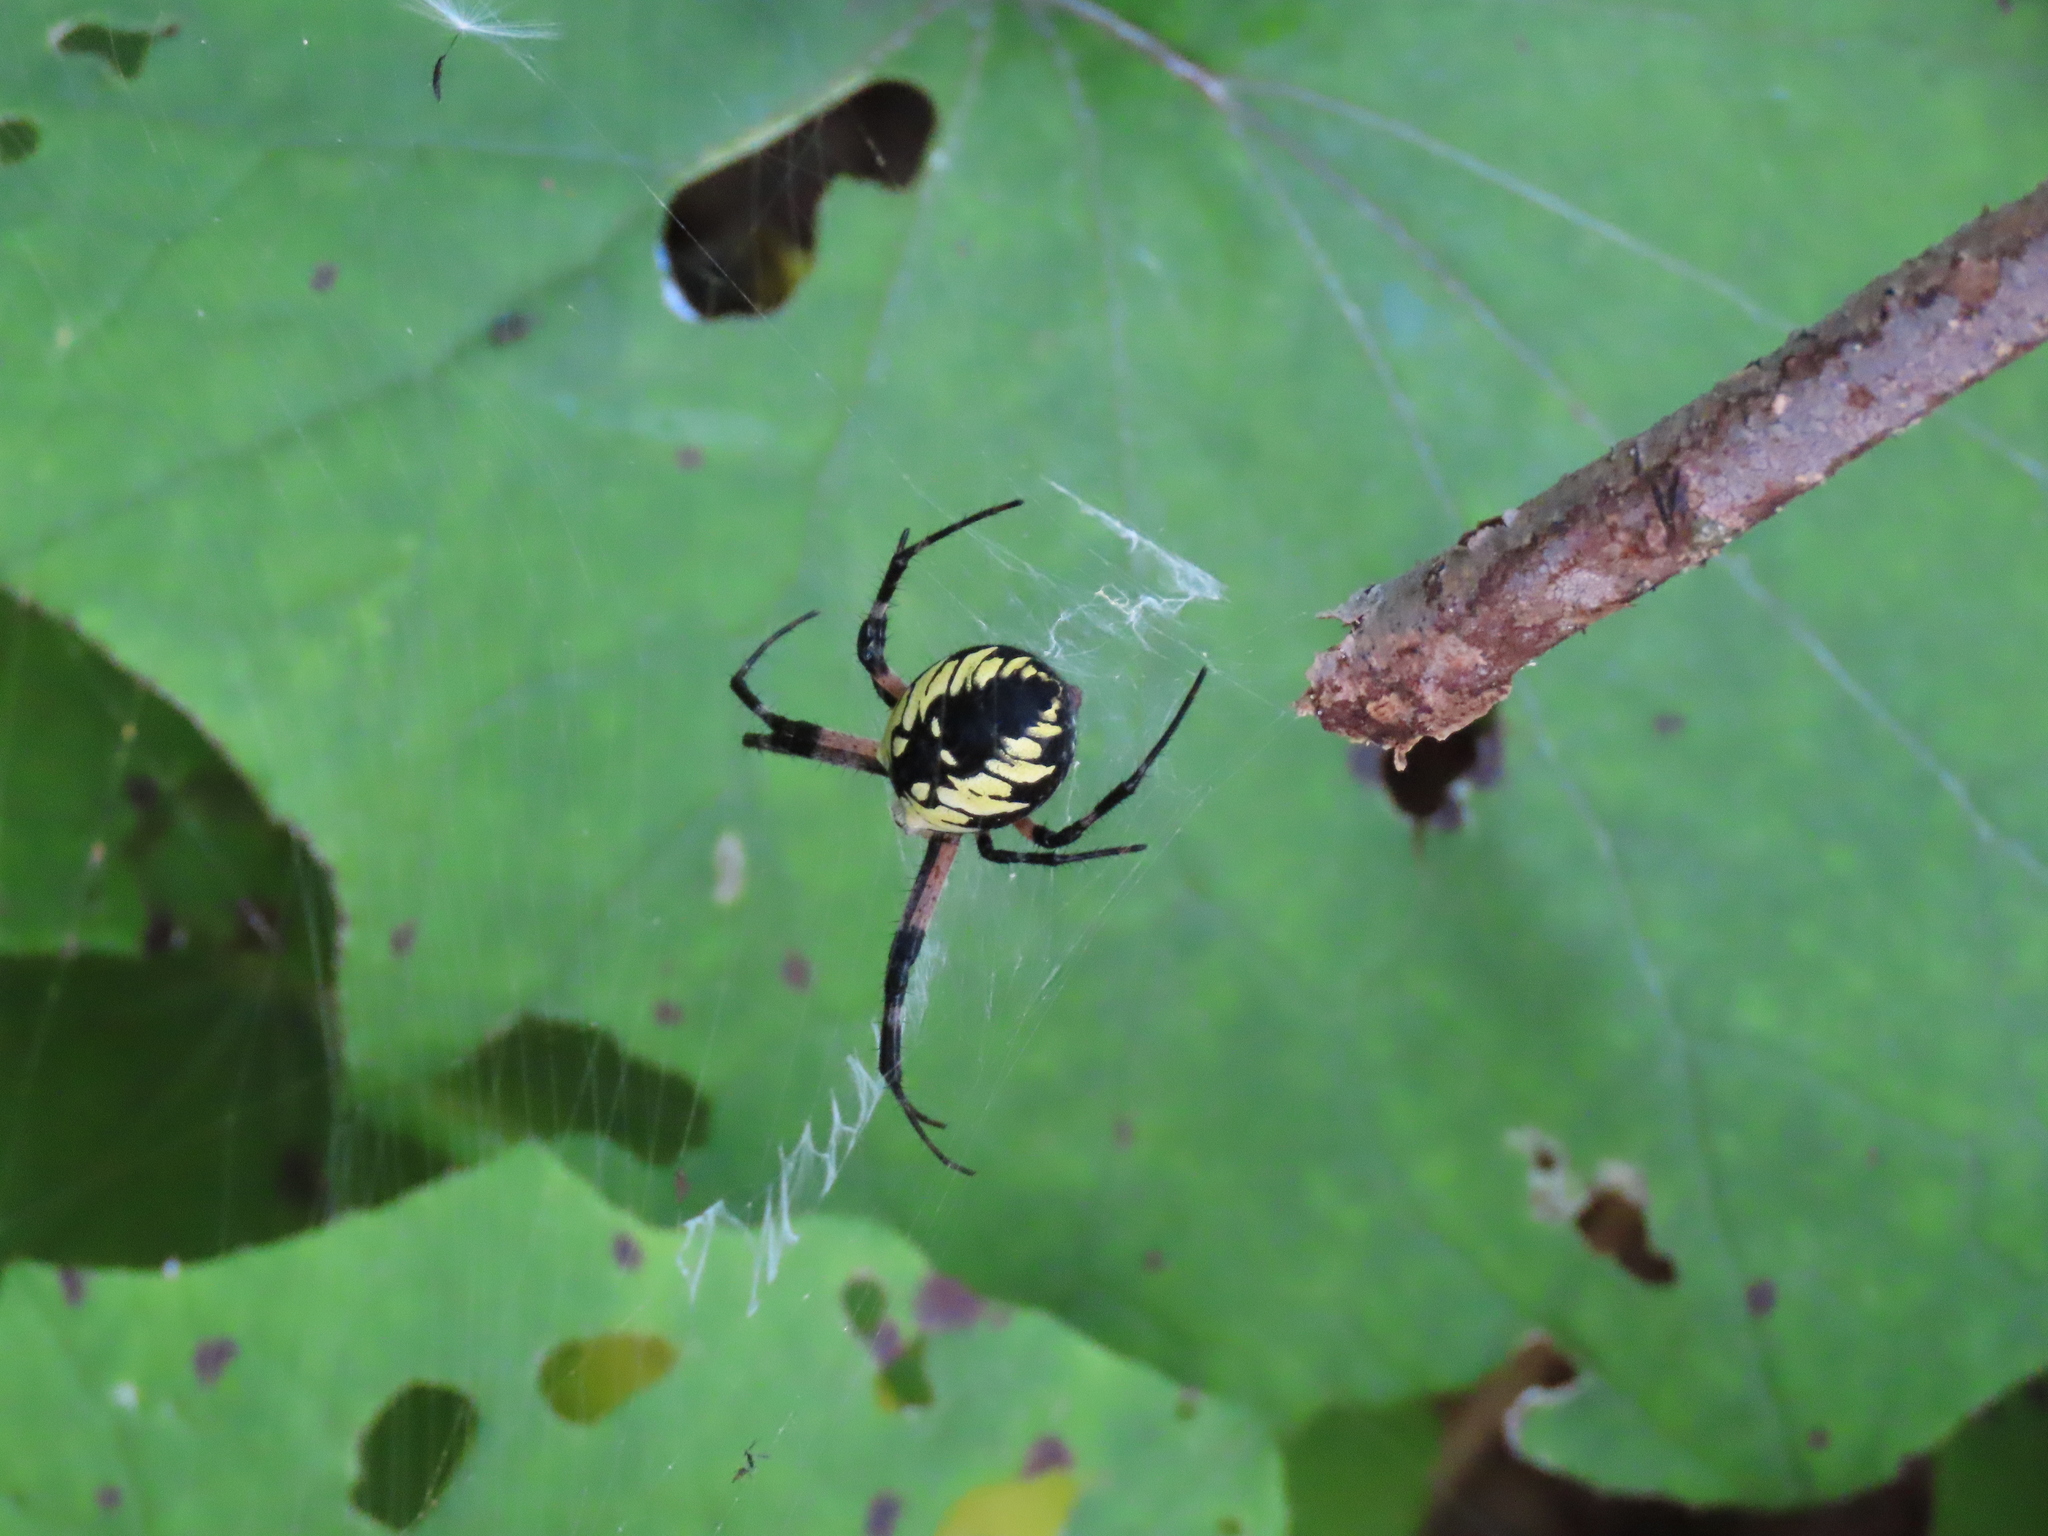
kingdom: Animalia
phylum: Arthropoda
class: Arachnida
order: Araneae
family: Araneidae
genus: Argiope
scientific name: Argiope aurantia
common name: Orb weavers
